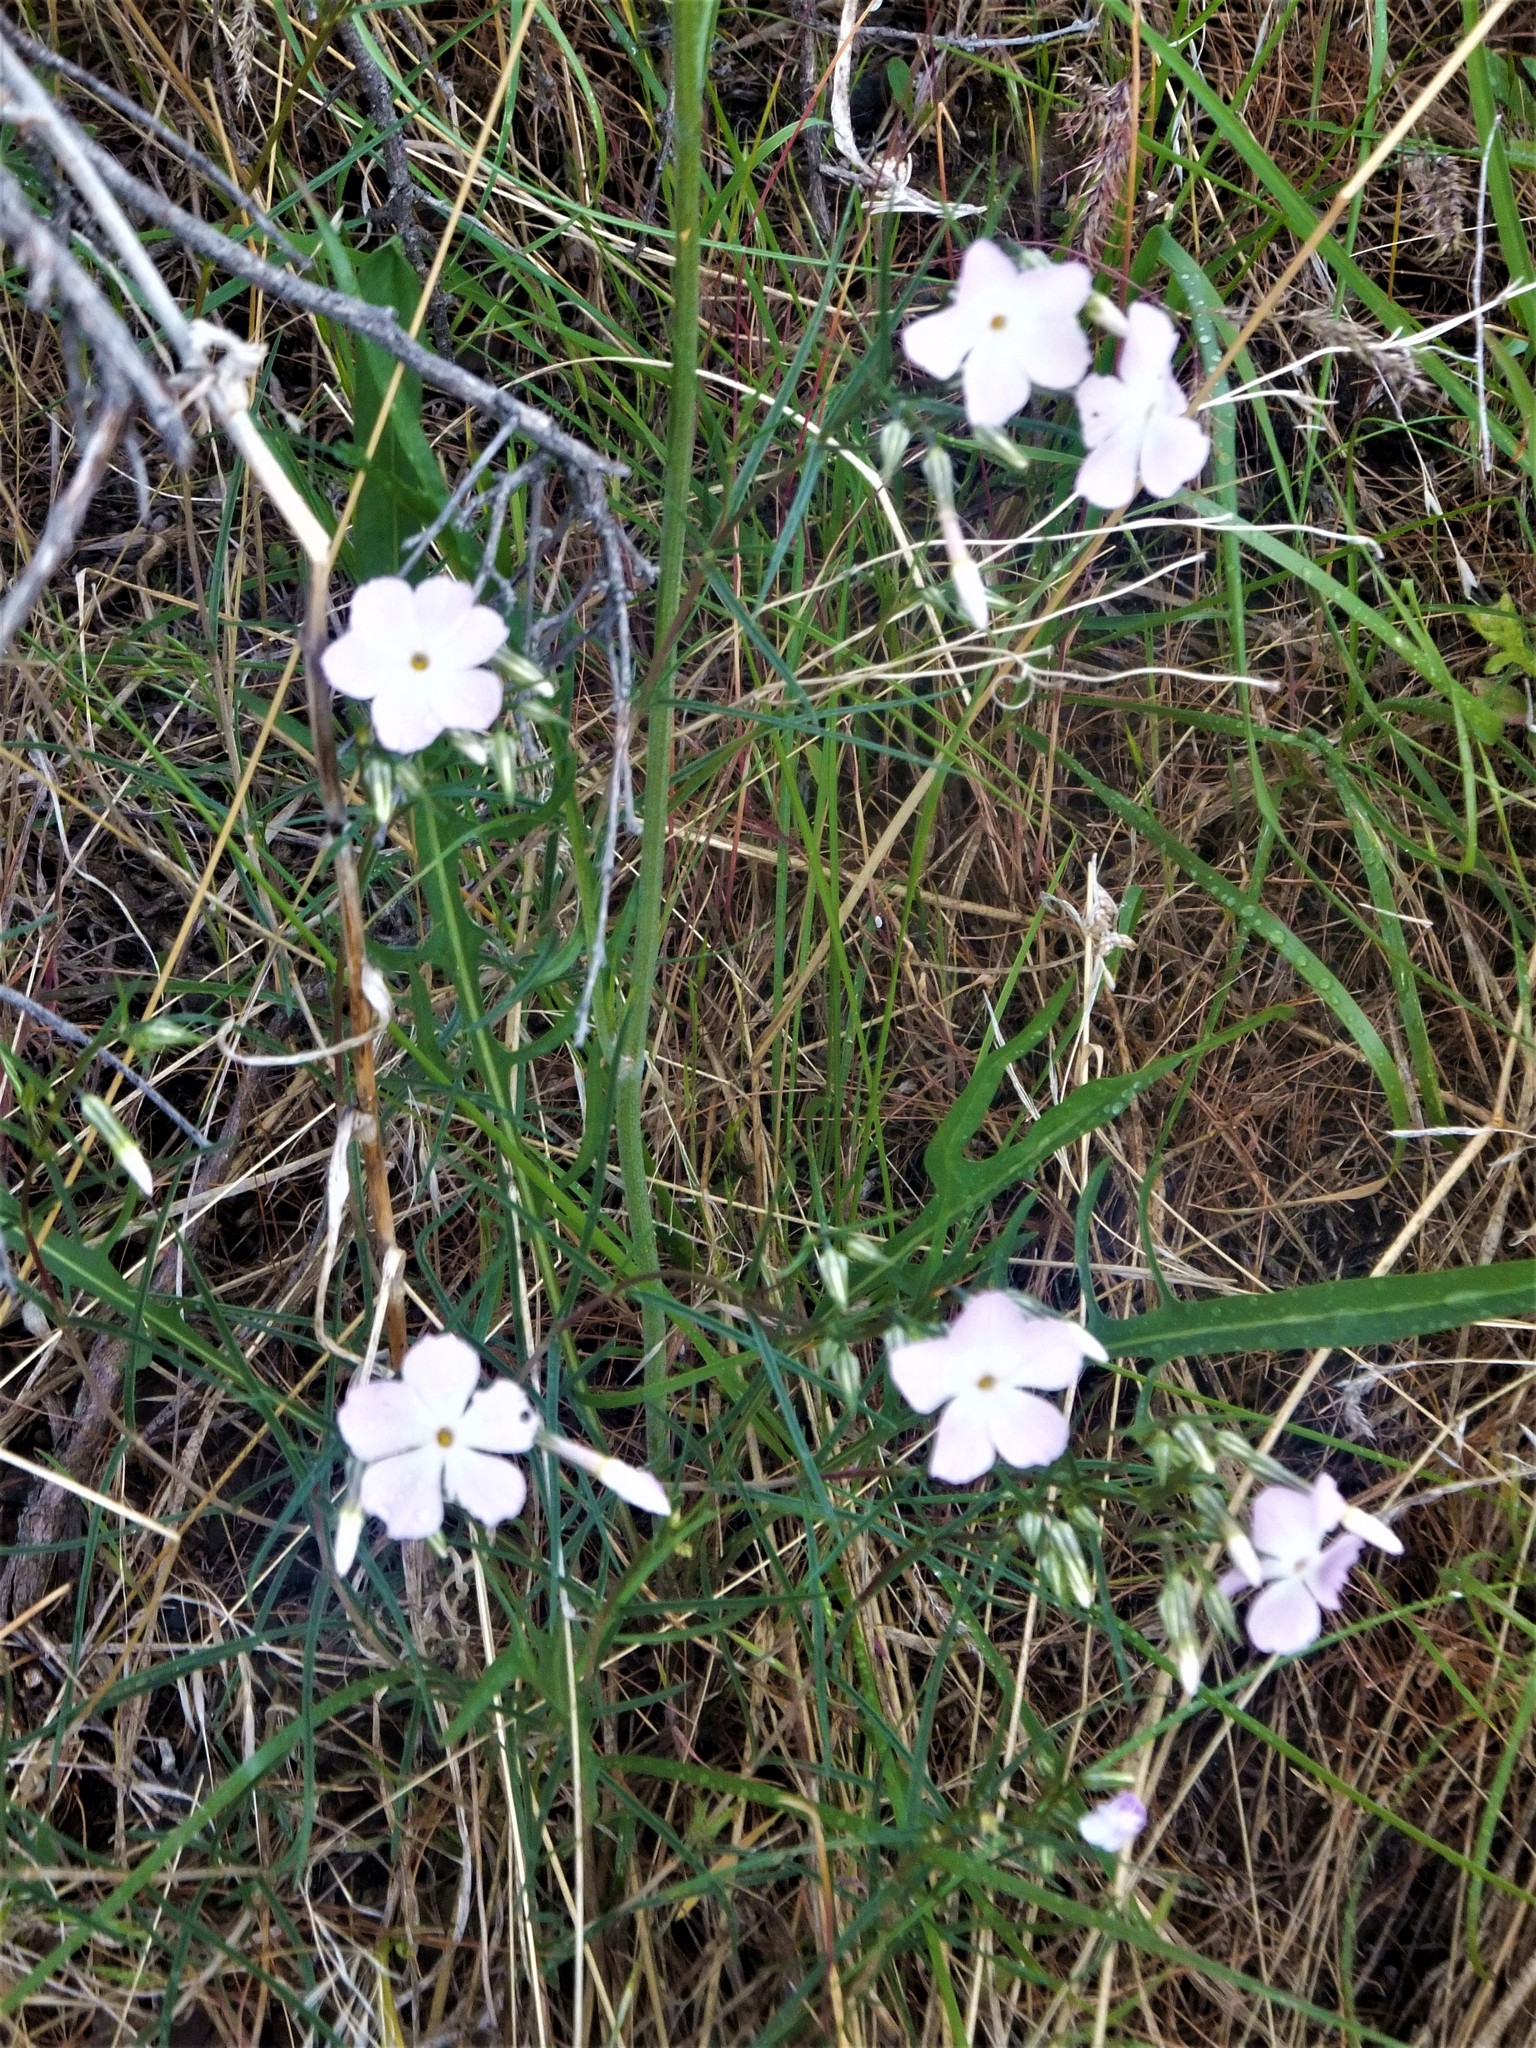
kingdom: Plantae
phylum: Tracheophyta
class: Magnoliopsida
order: Ericales
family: Polemoniaceae
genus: Phlox
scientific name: Phlox longifolia
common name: Longleaf phlox
